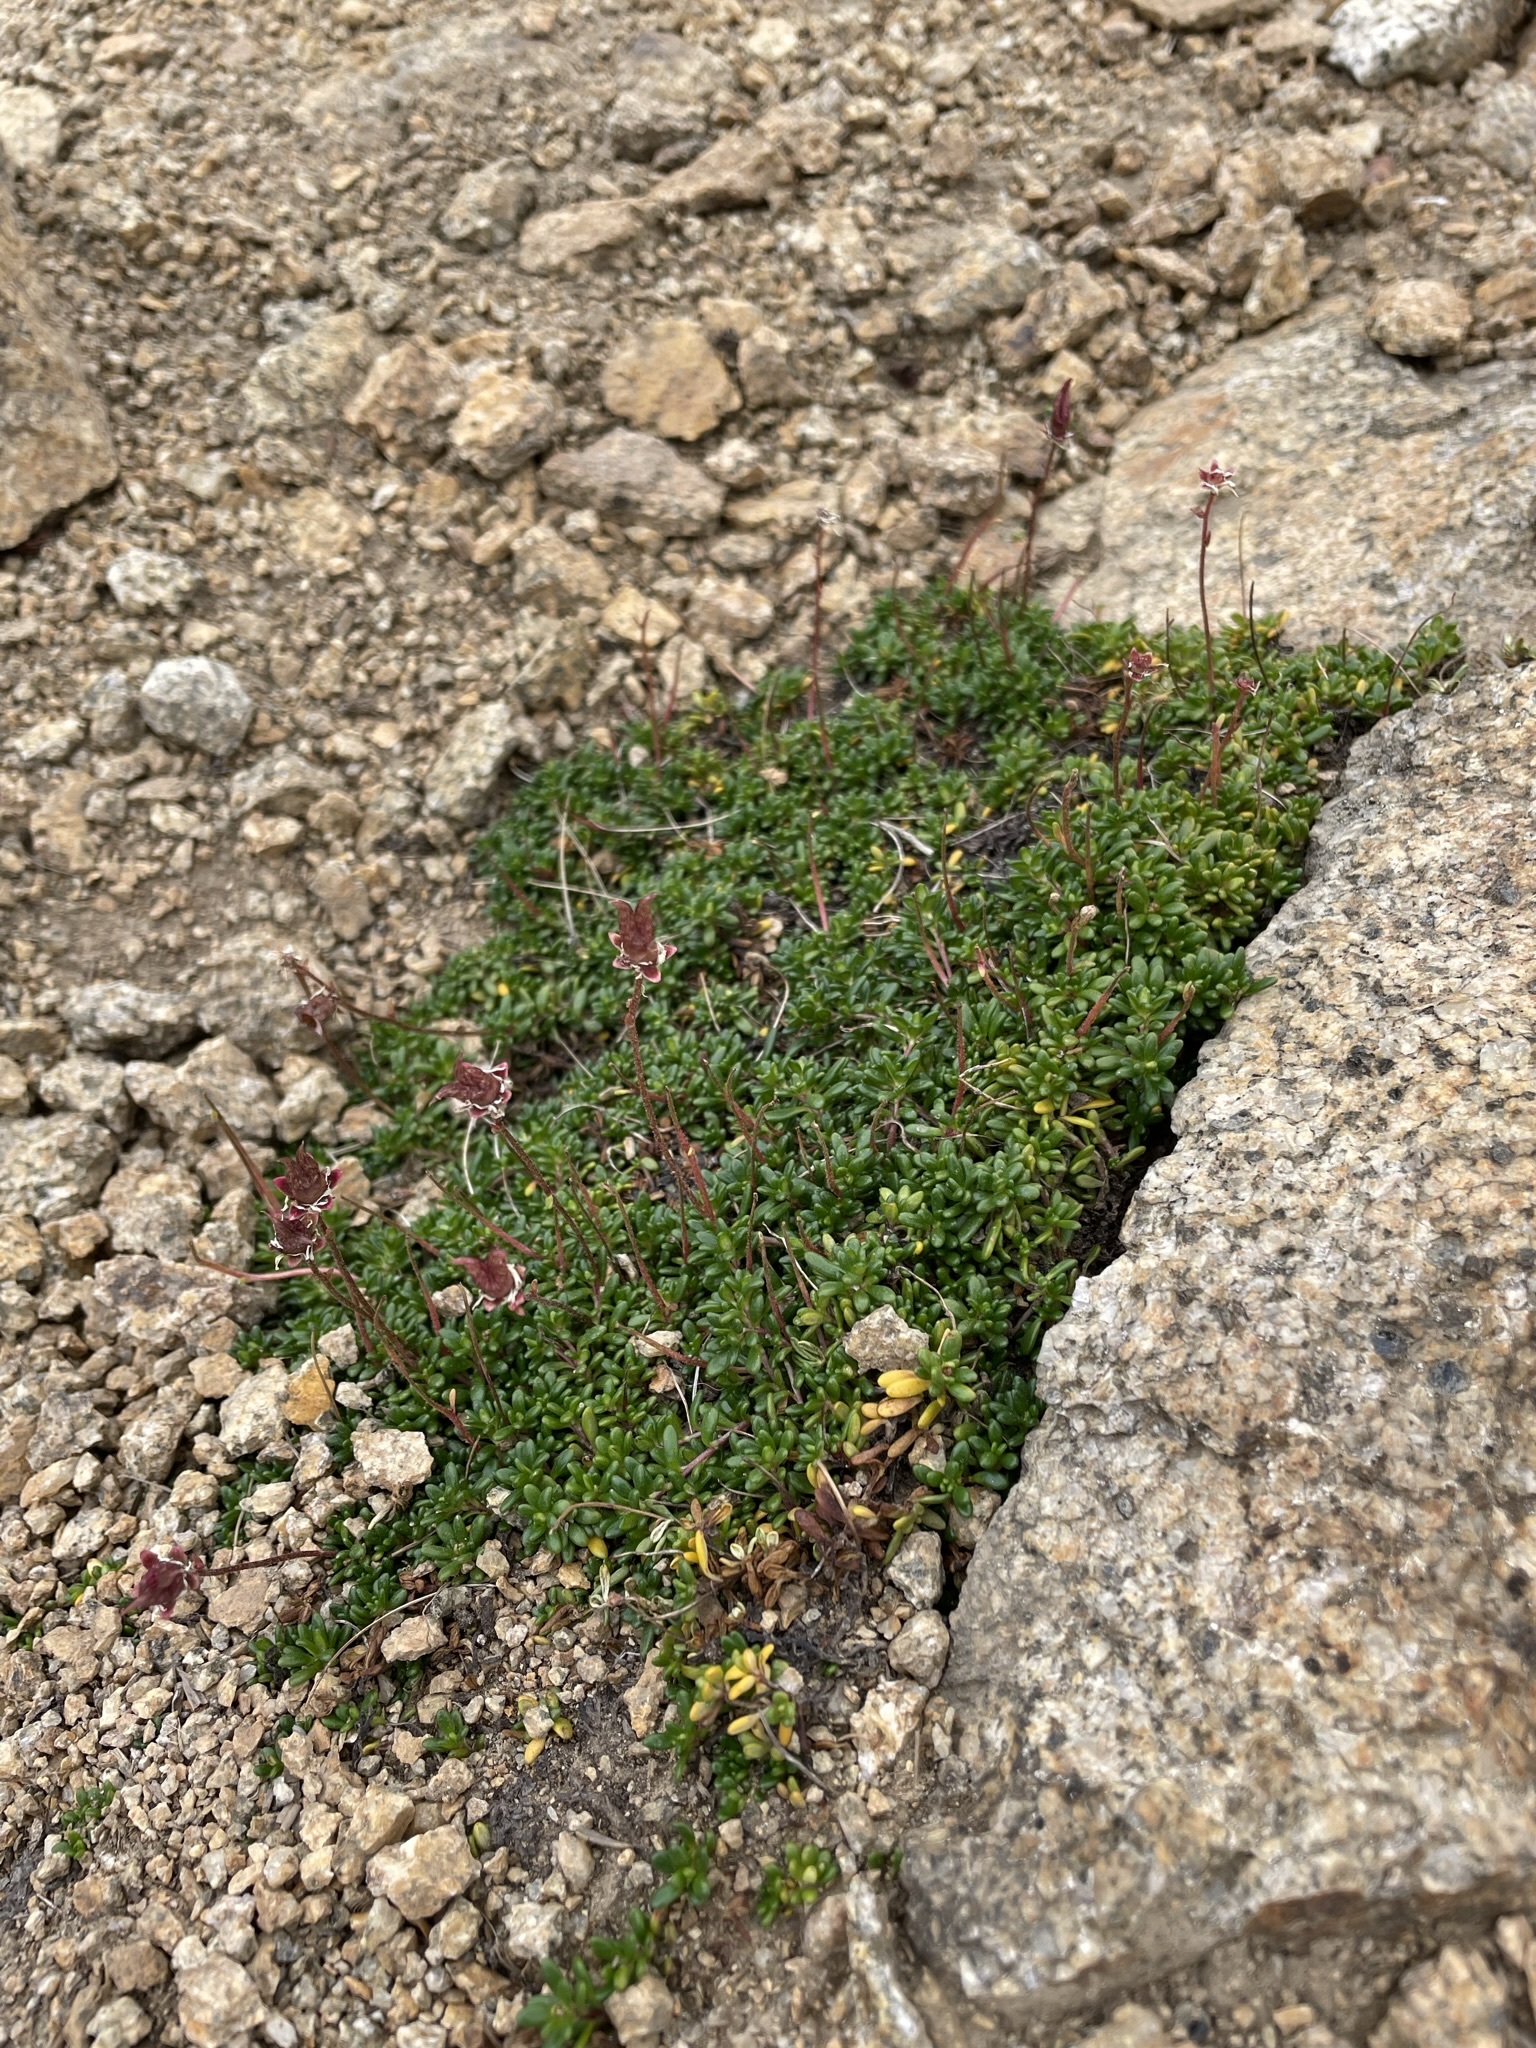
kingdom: Plantae
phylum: Tracheophyta
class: Magnoliopsida
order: Saxifragales
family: Saxifragaceae
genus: Micranthes
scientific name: Micranthes tolmiei
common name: Tolmie's saxifrage
